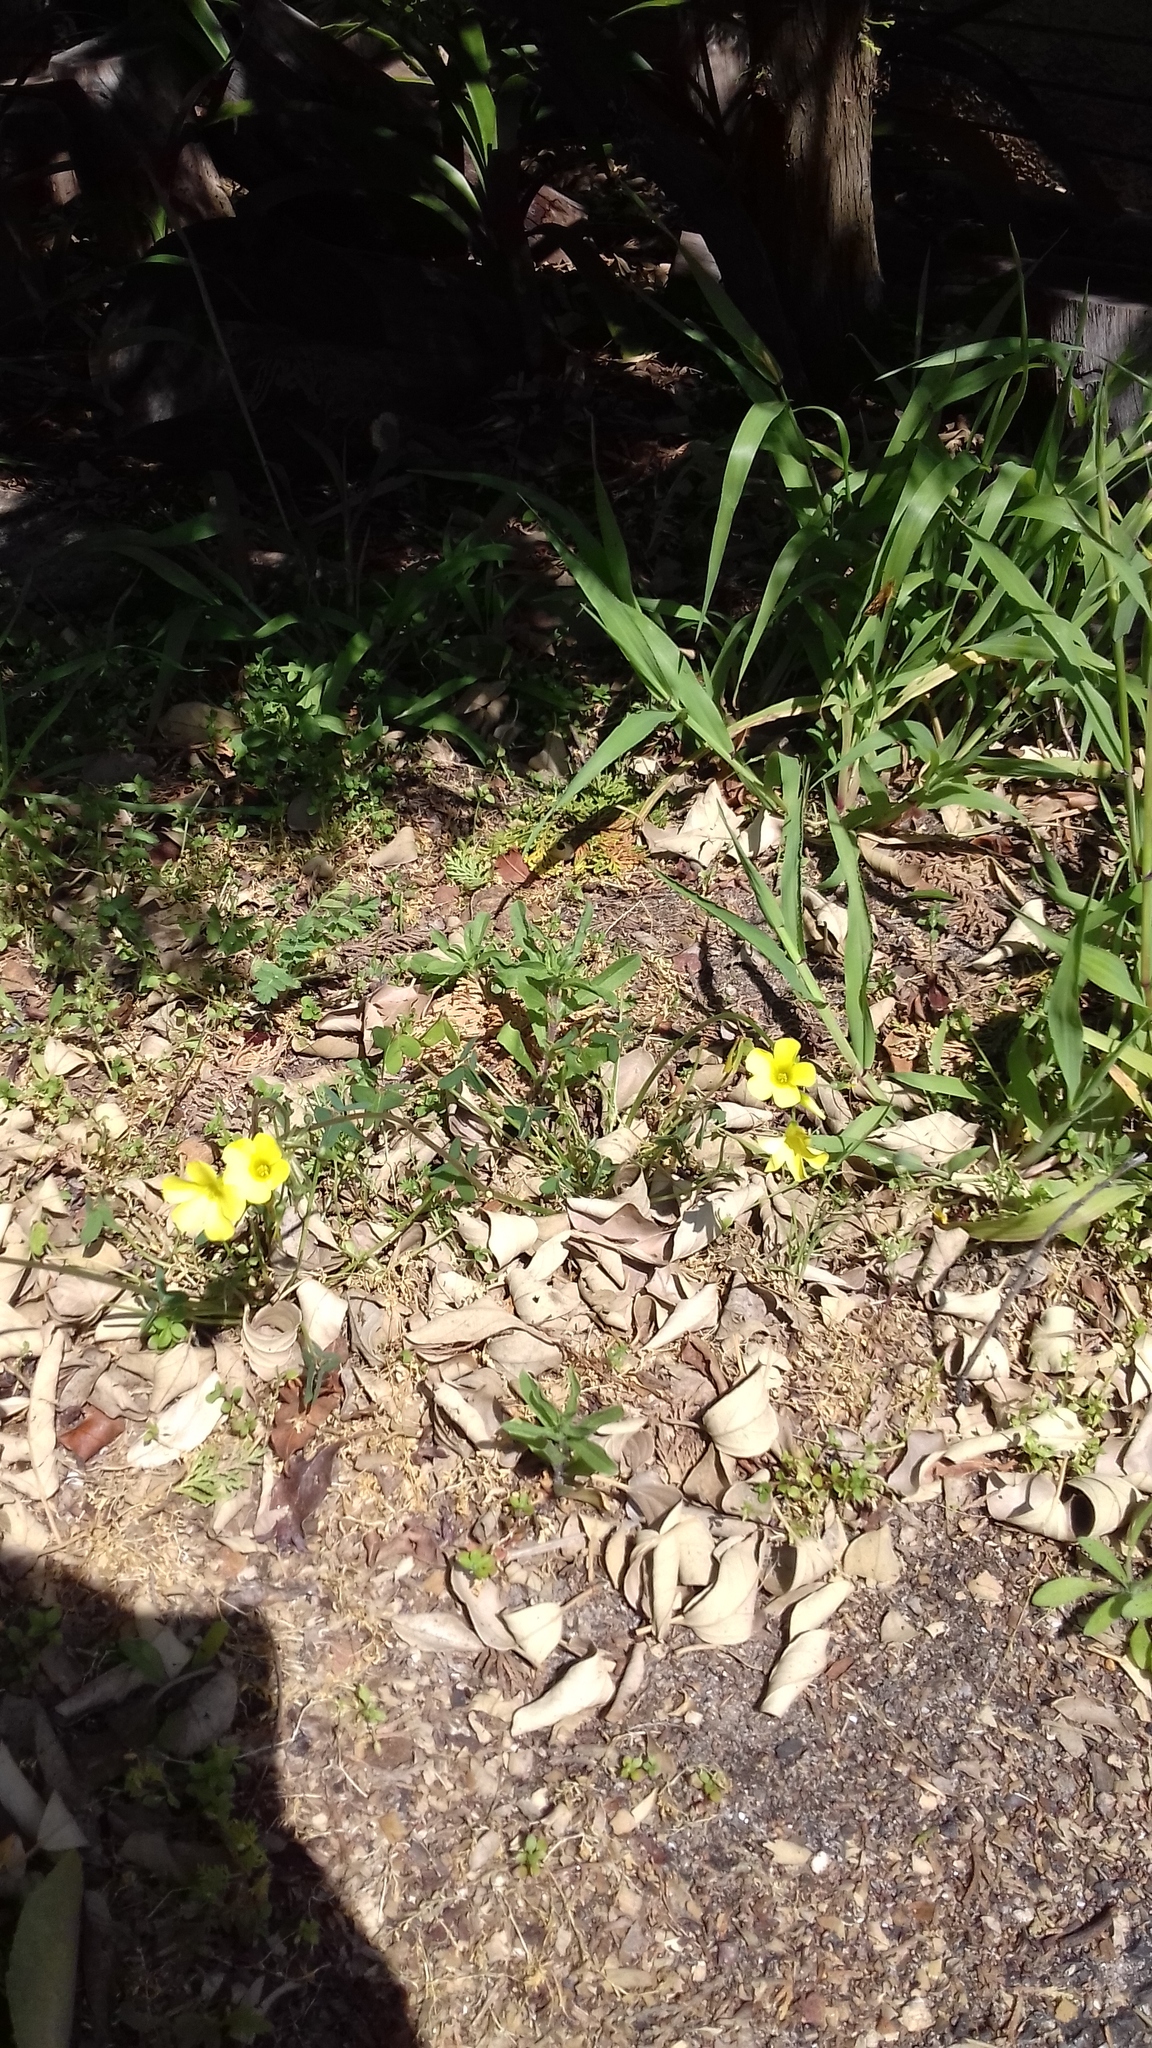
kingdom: Animalia
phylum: Arthropoda
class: Insecta
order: Lepidoptera
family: Hesperiidae
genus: Metisella
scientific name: Metisella metis
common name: Western gold-spotted sylph
